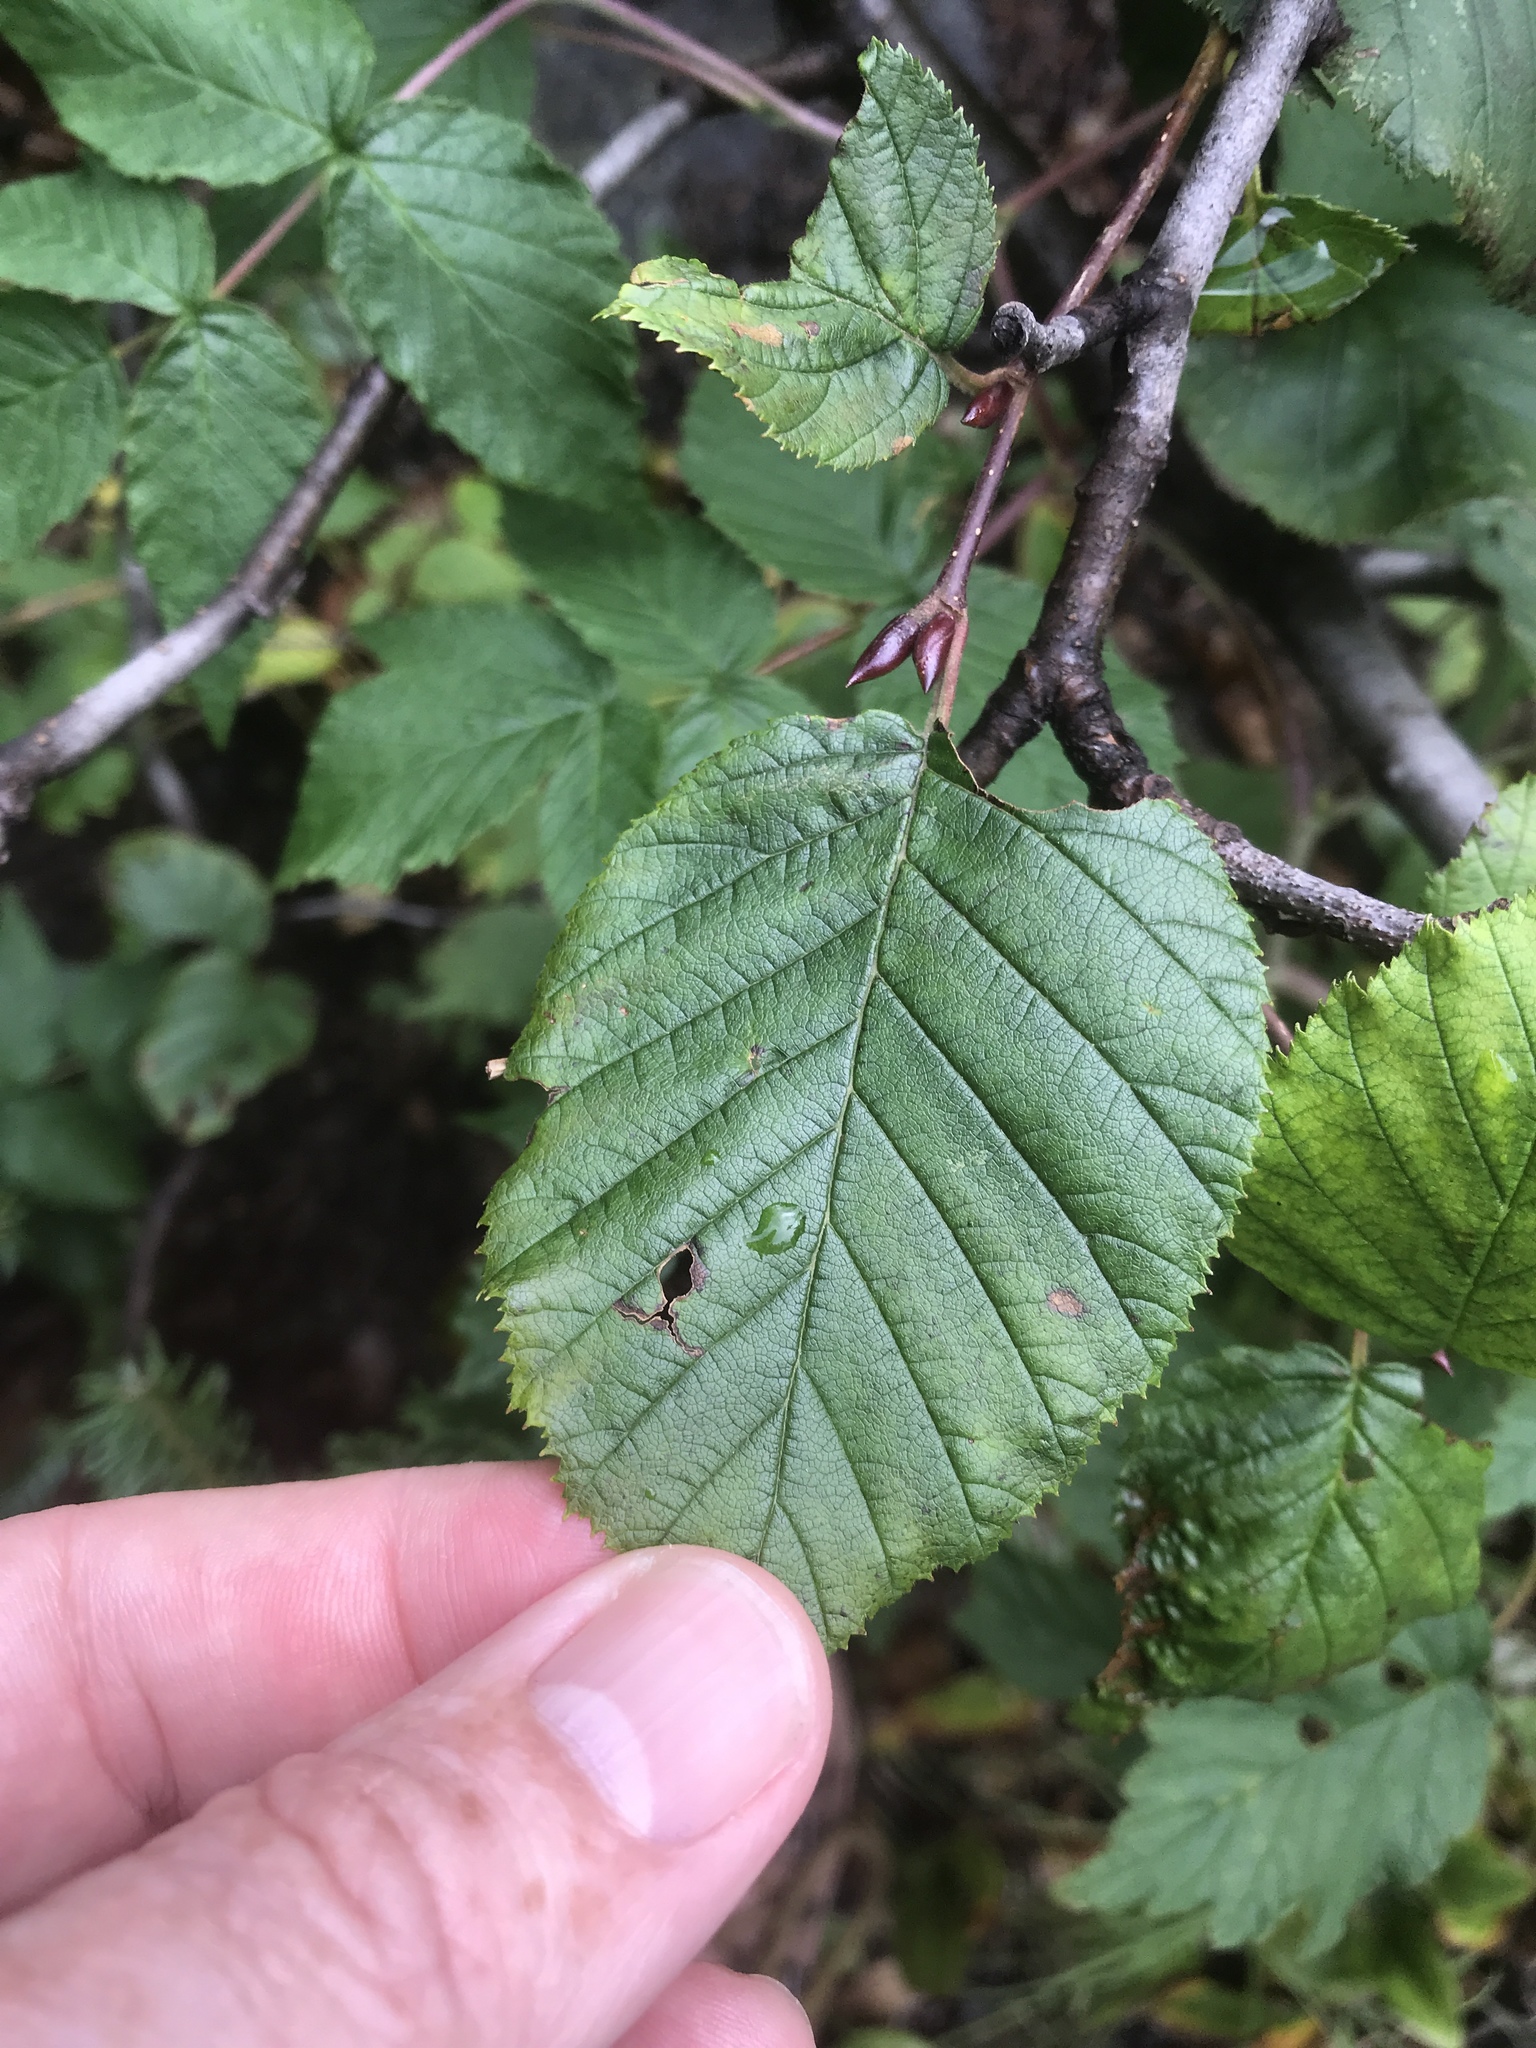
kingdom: Plantae
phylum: Tracheophyta
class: Magnoliopsida
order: Fagales
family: Betulaceae
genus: Alnus
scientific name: Alnus alnobetula
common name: Green alder
